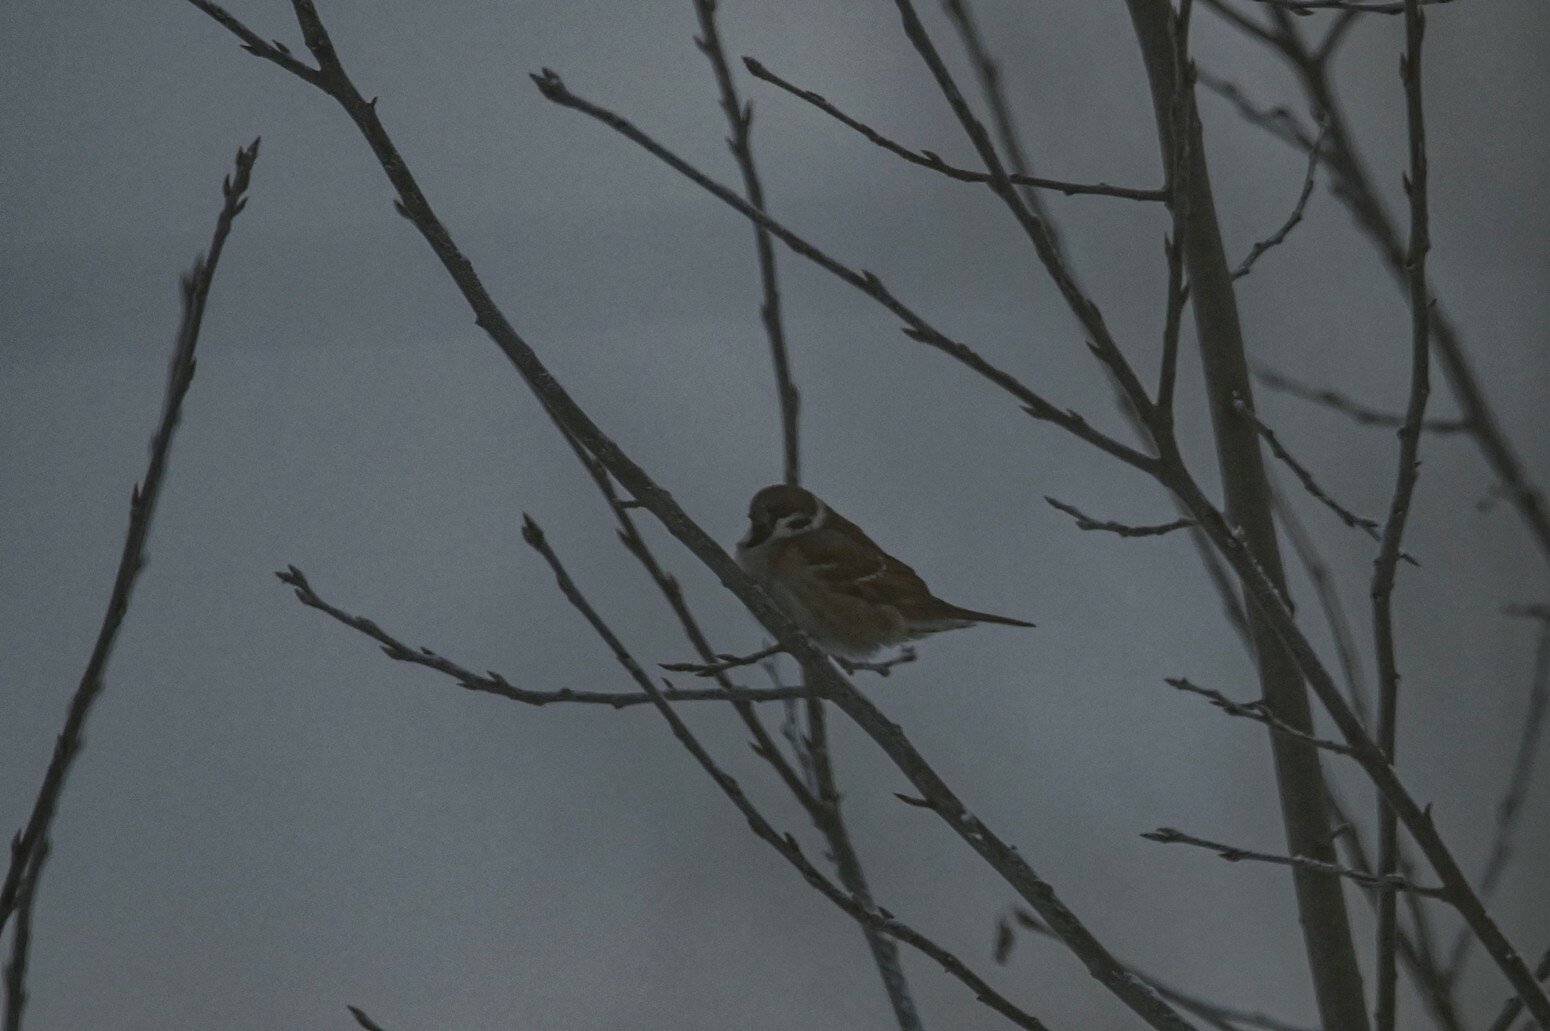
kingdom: Animalia
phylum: Chordata
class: Aves
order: Passeriformes
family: Passeridae
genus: Passer
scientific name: Passer montanus
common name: Eurasian tree sparrow
